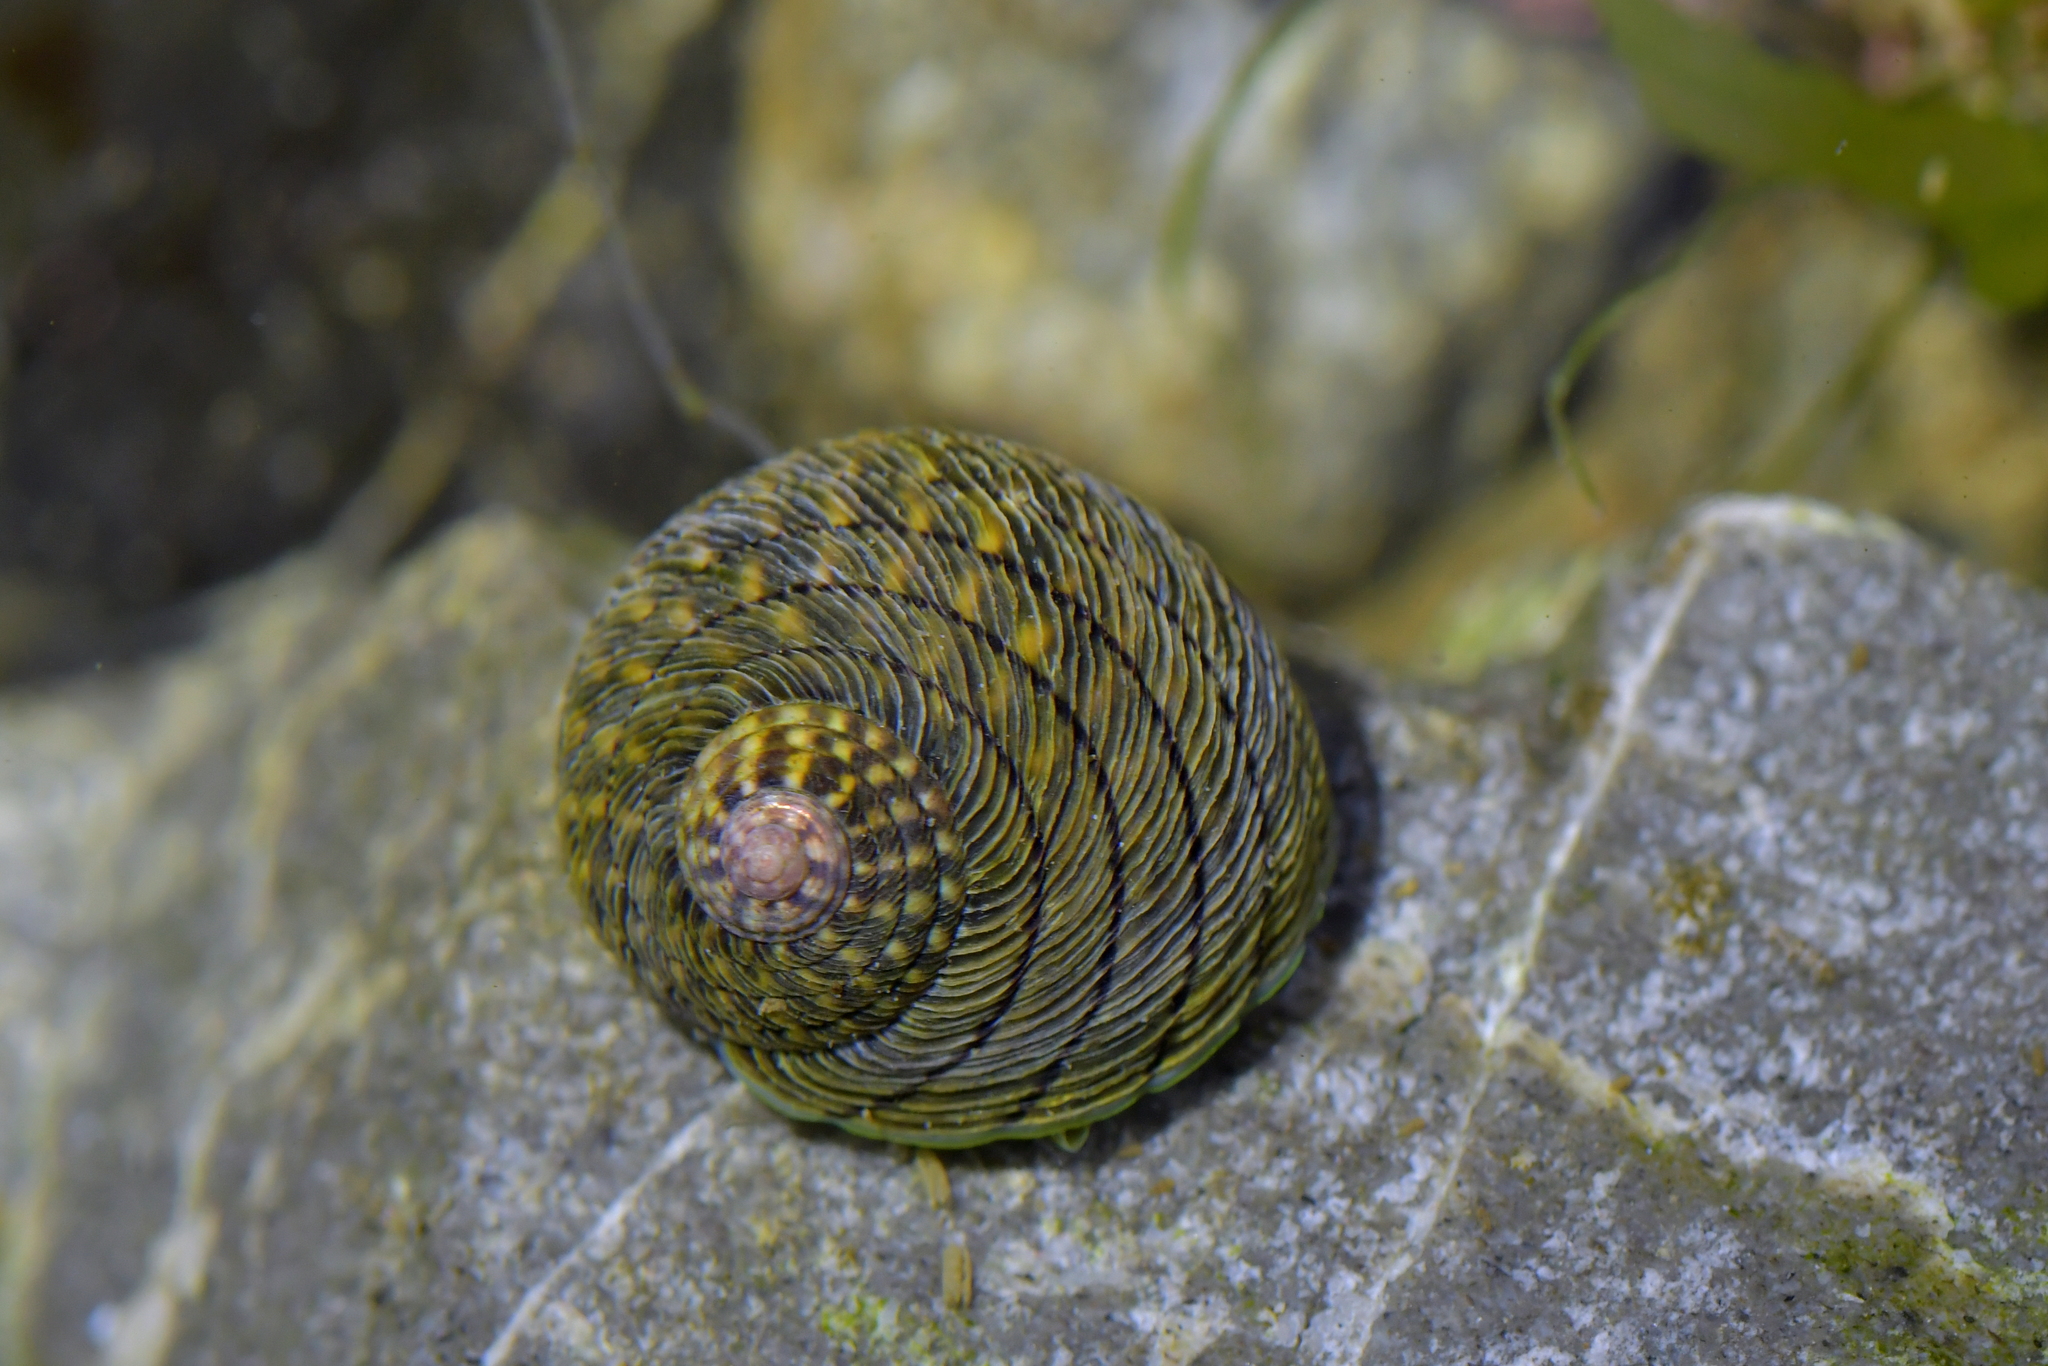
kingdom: Animalia
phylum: Mollusca
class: Gastropoda
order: Trochida
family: Trochidae
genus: Diloma
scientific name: Diloma aethiops
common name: Scorched monodont
